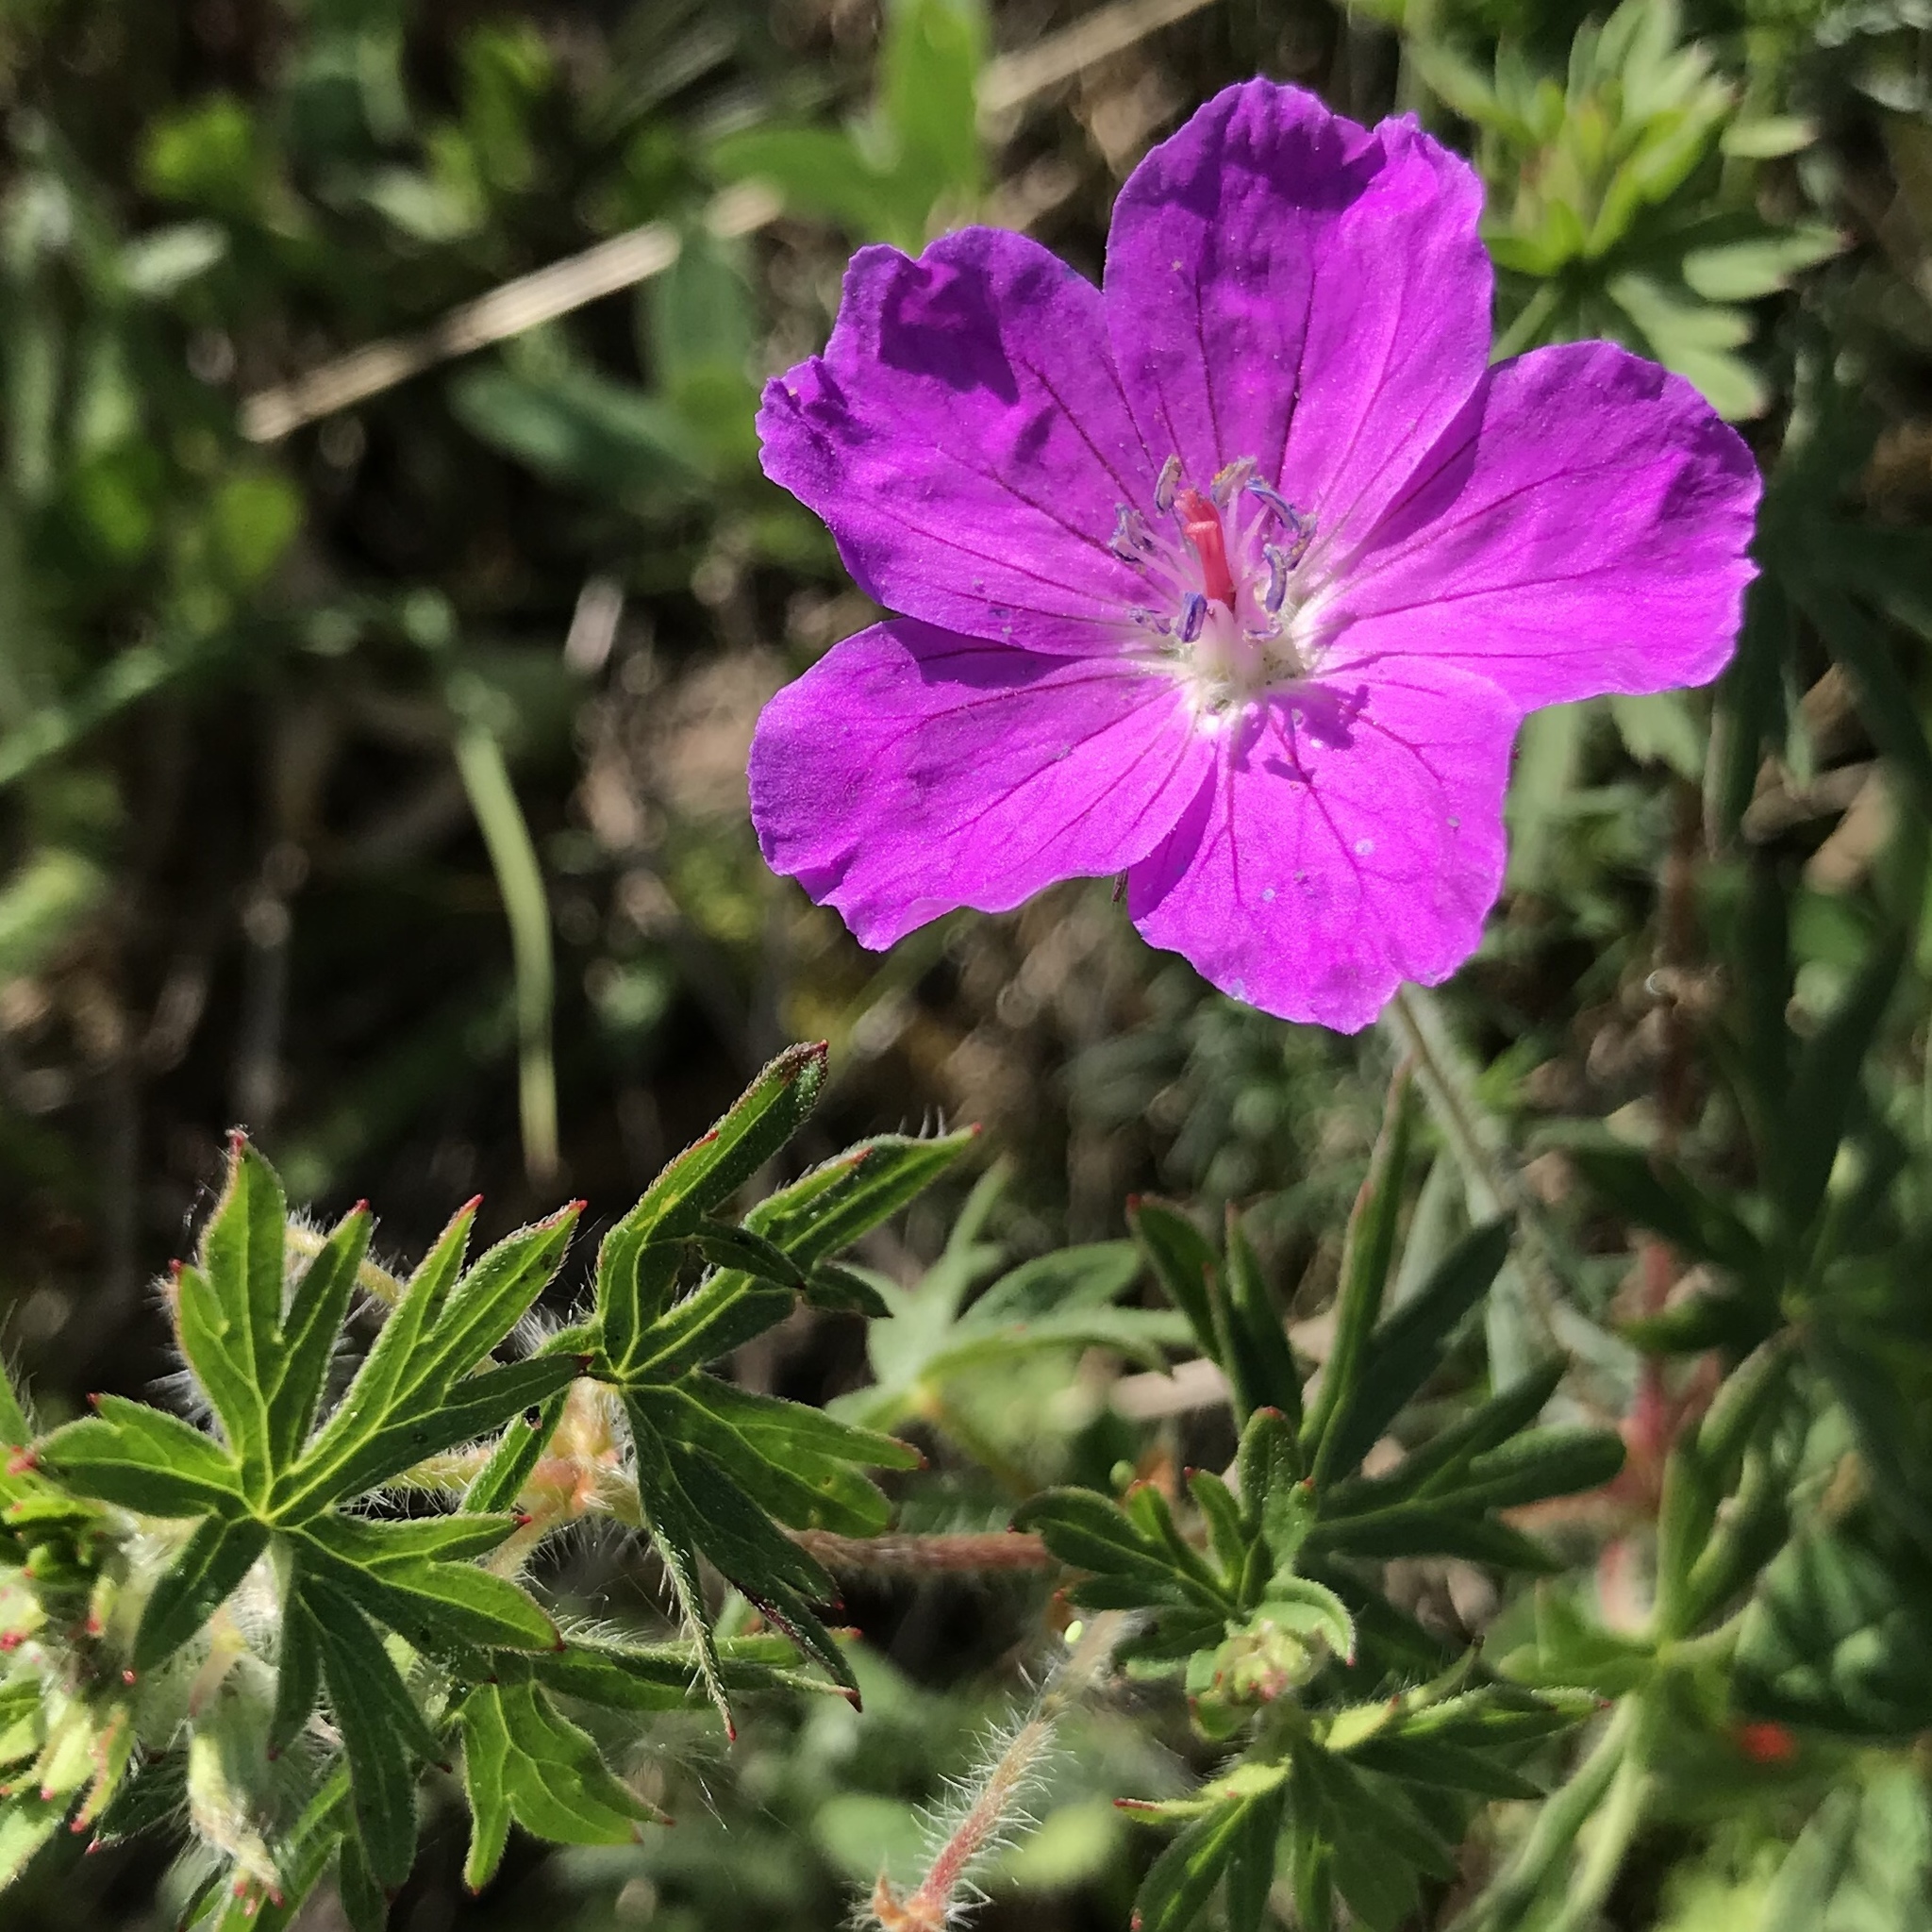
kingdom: Plantae
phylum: Tracheophyta
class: Magnoliopsida
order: Geraniales
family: Geraniaceae
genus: Geranium
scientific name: Geranium sanguineum
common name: Bloody crane's-bill
